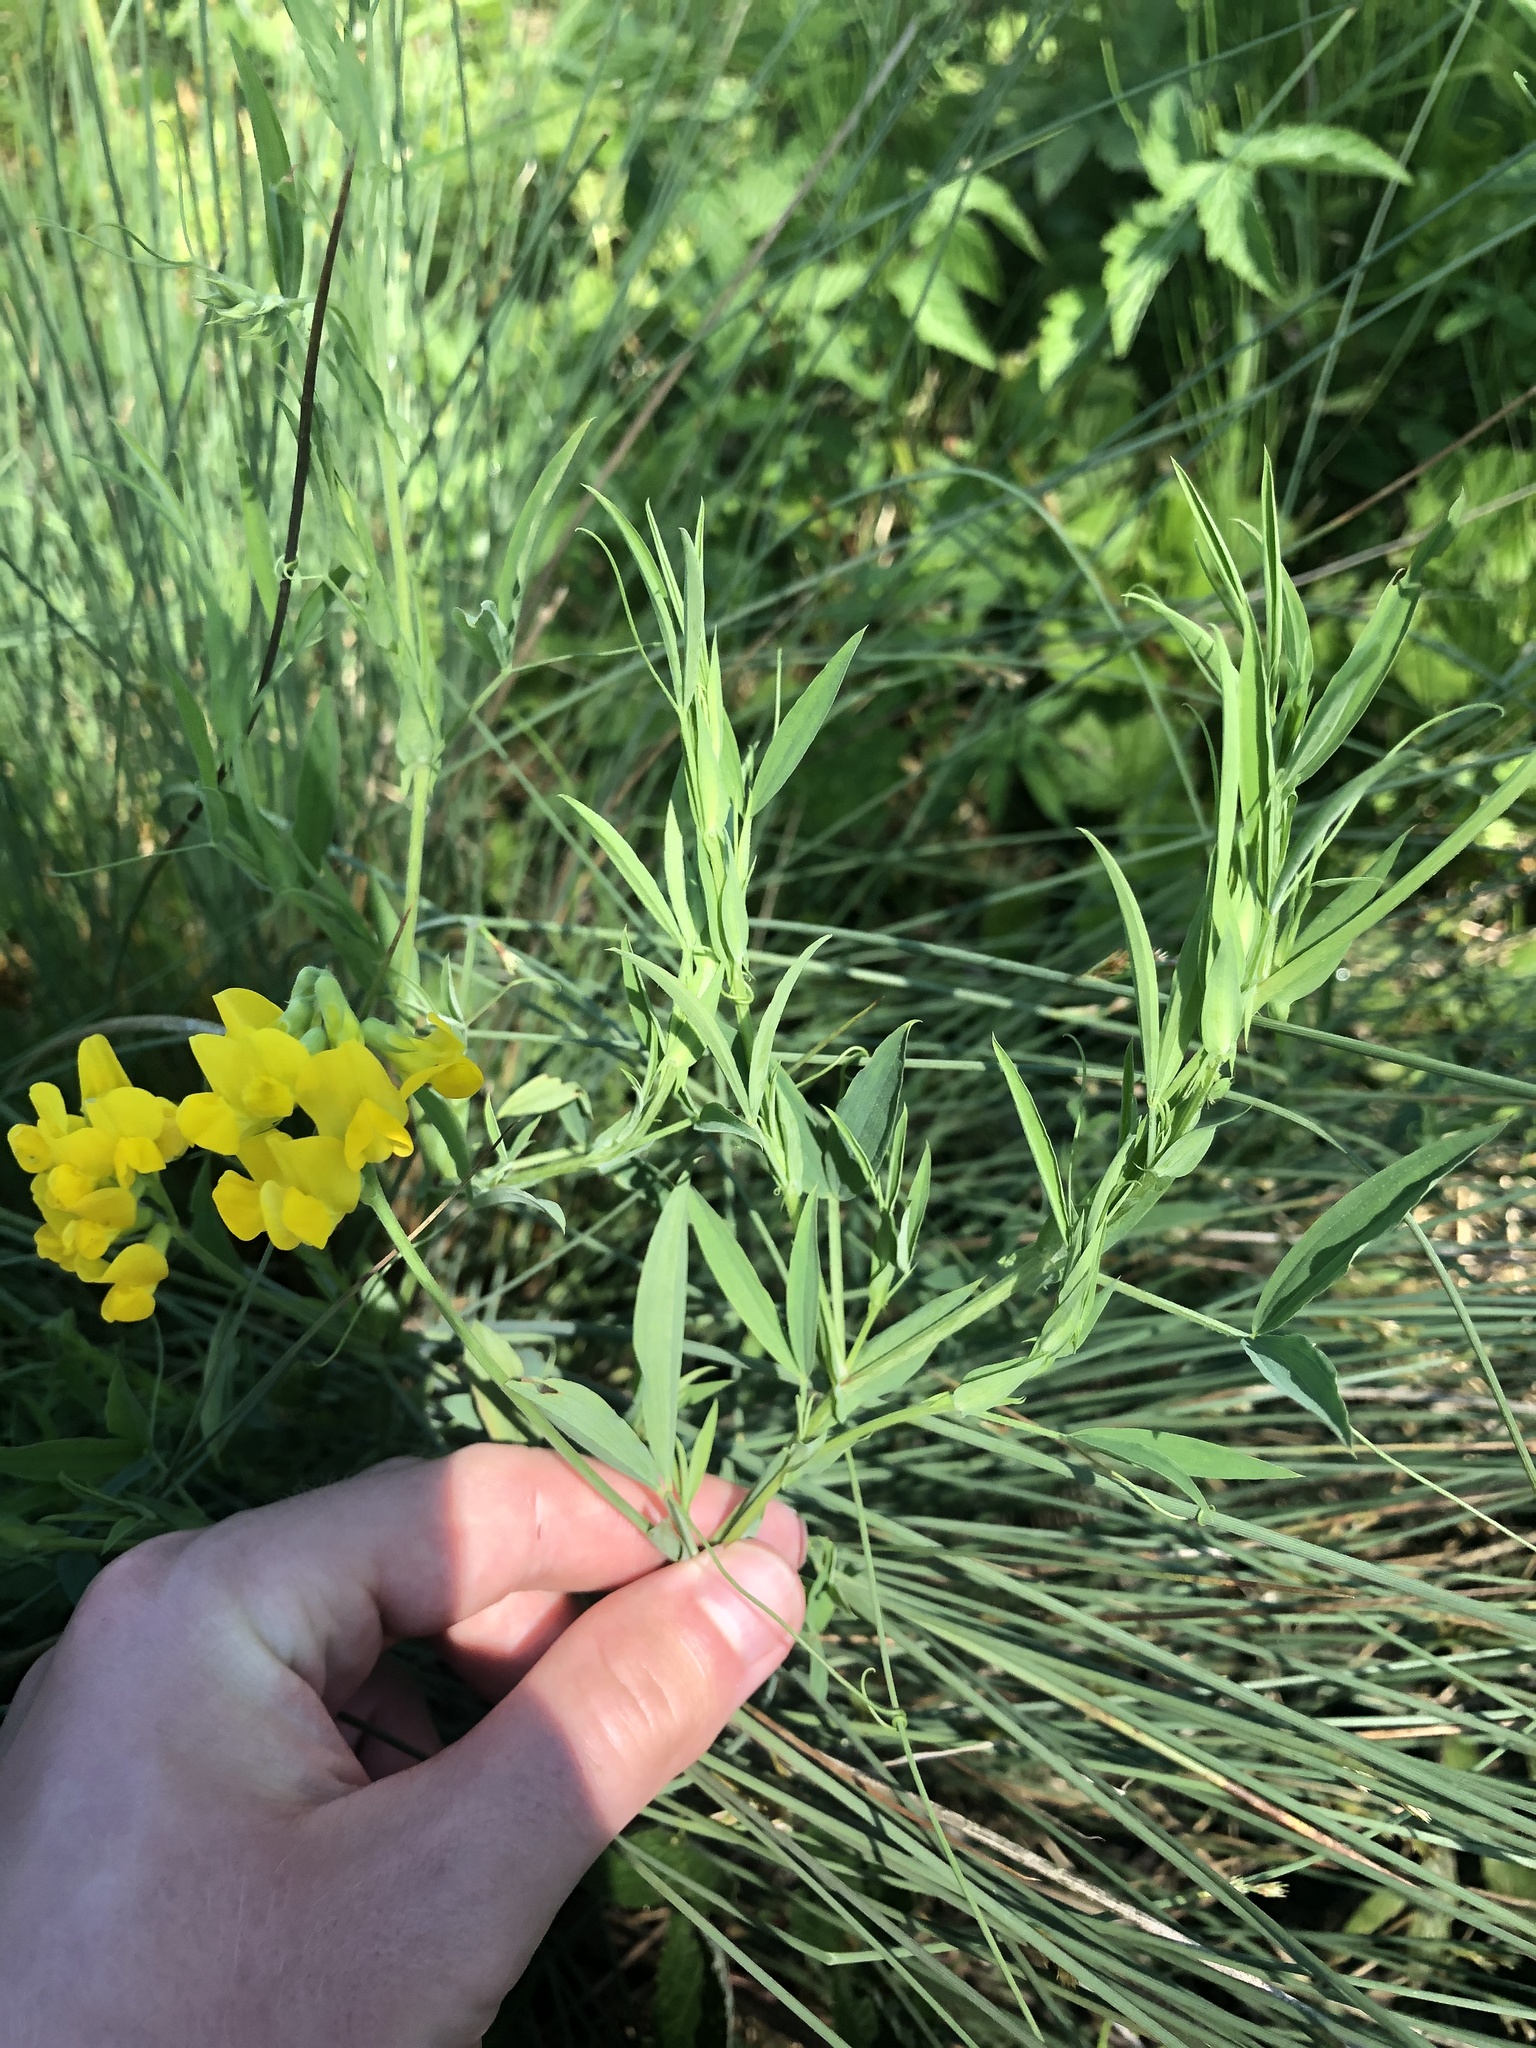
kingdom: Plantae
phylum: Tracheophyta
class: Magnoliopsida
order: Fabales
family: Fabaceae
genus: Lathyrus
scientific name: Lathyrus pratensis
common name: Meadow vetchling
